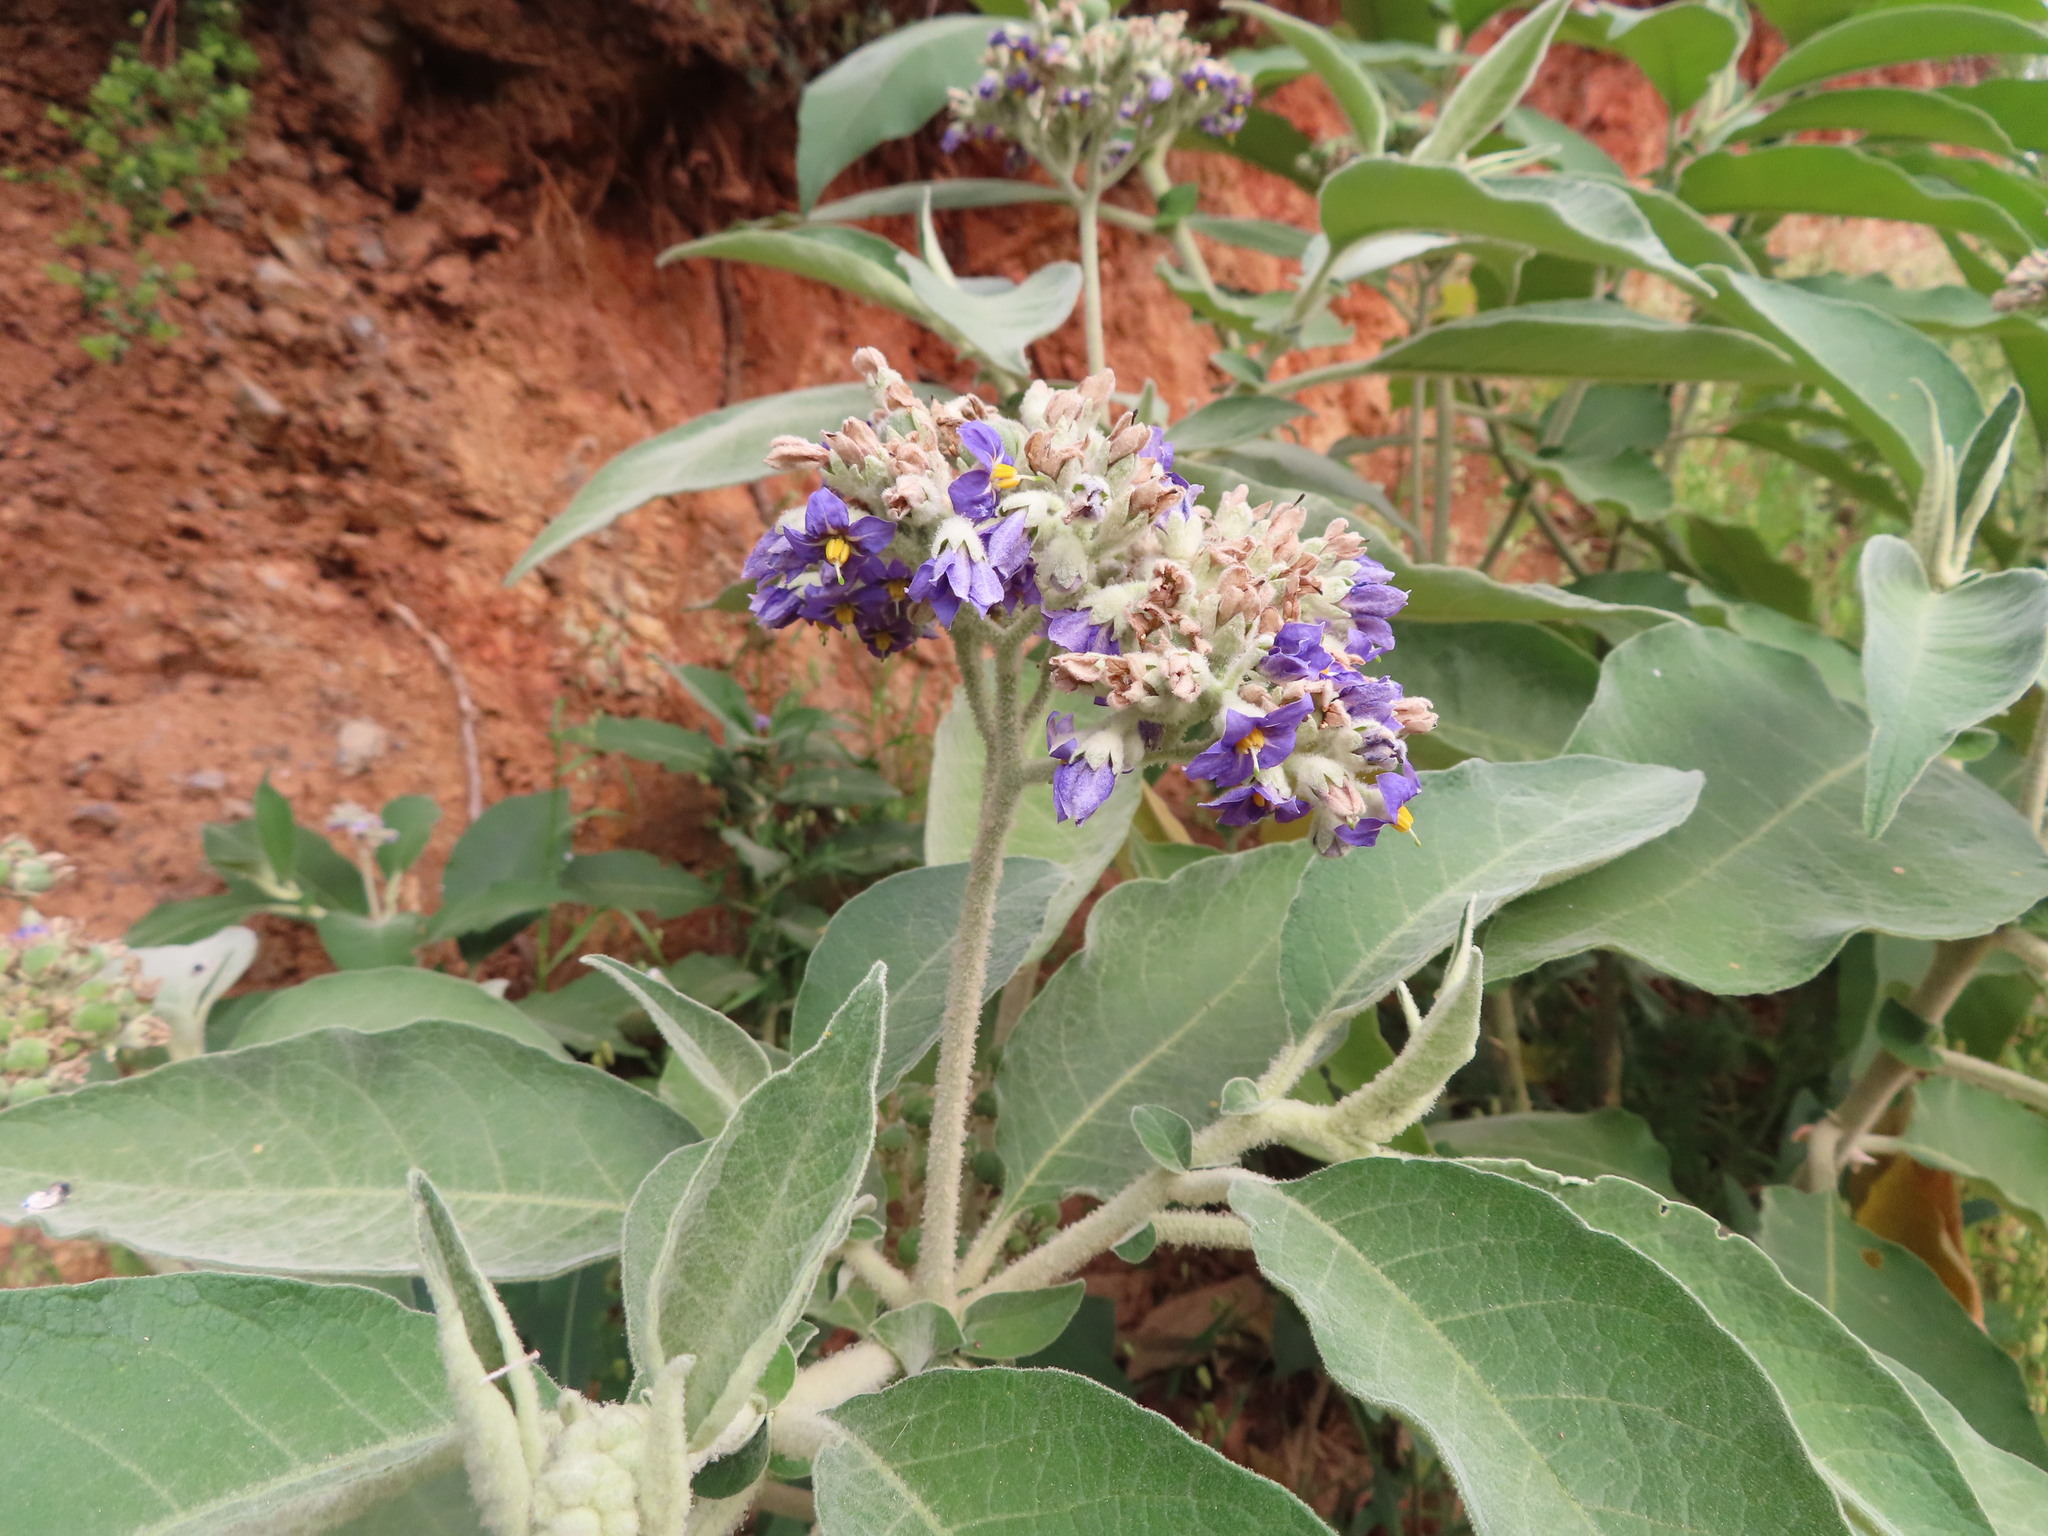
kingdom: Plantae
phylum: Tracheophyta
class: Magnoliopsida
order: Solanales
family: Solanaceae
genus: Solanum
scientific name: Solanum mauritianum
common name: Earleaf nightshade
